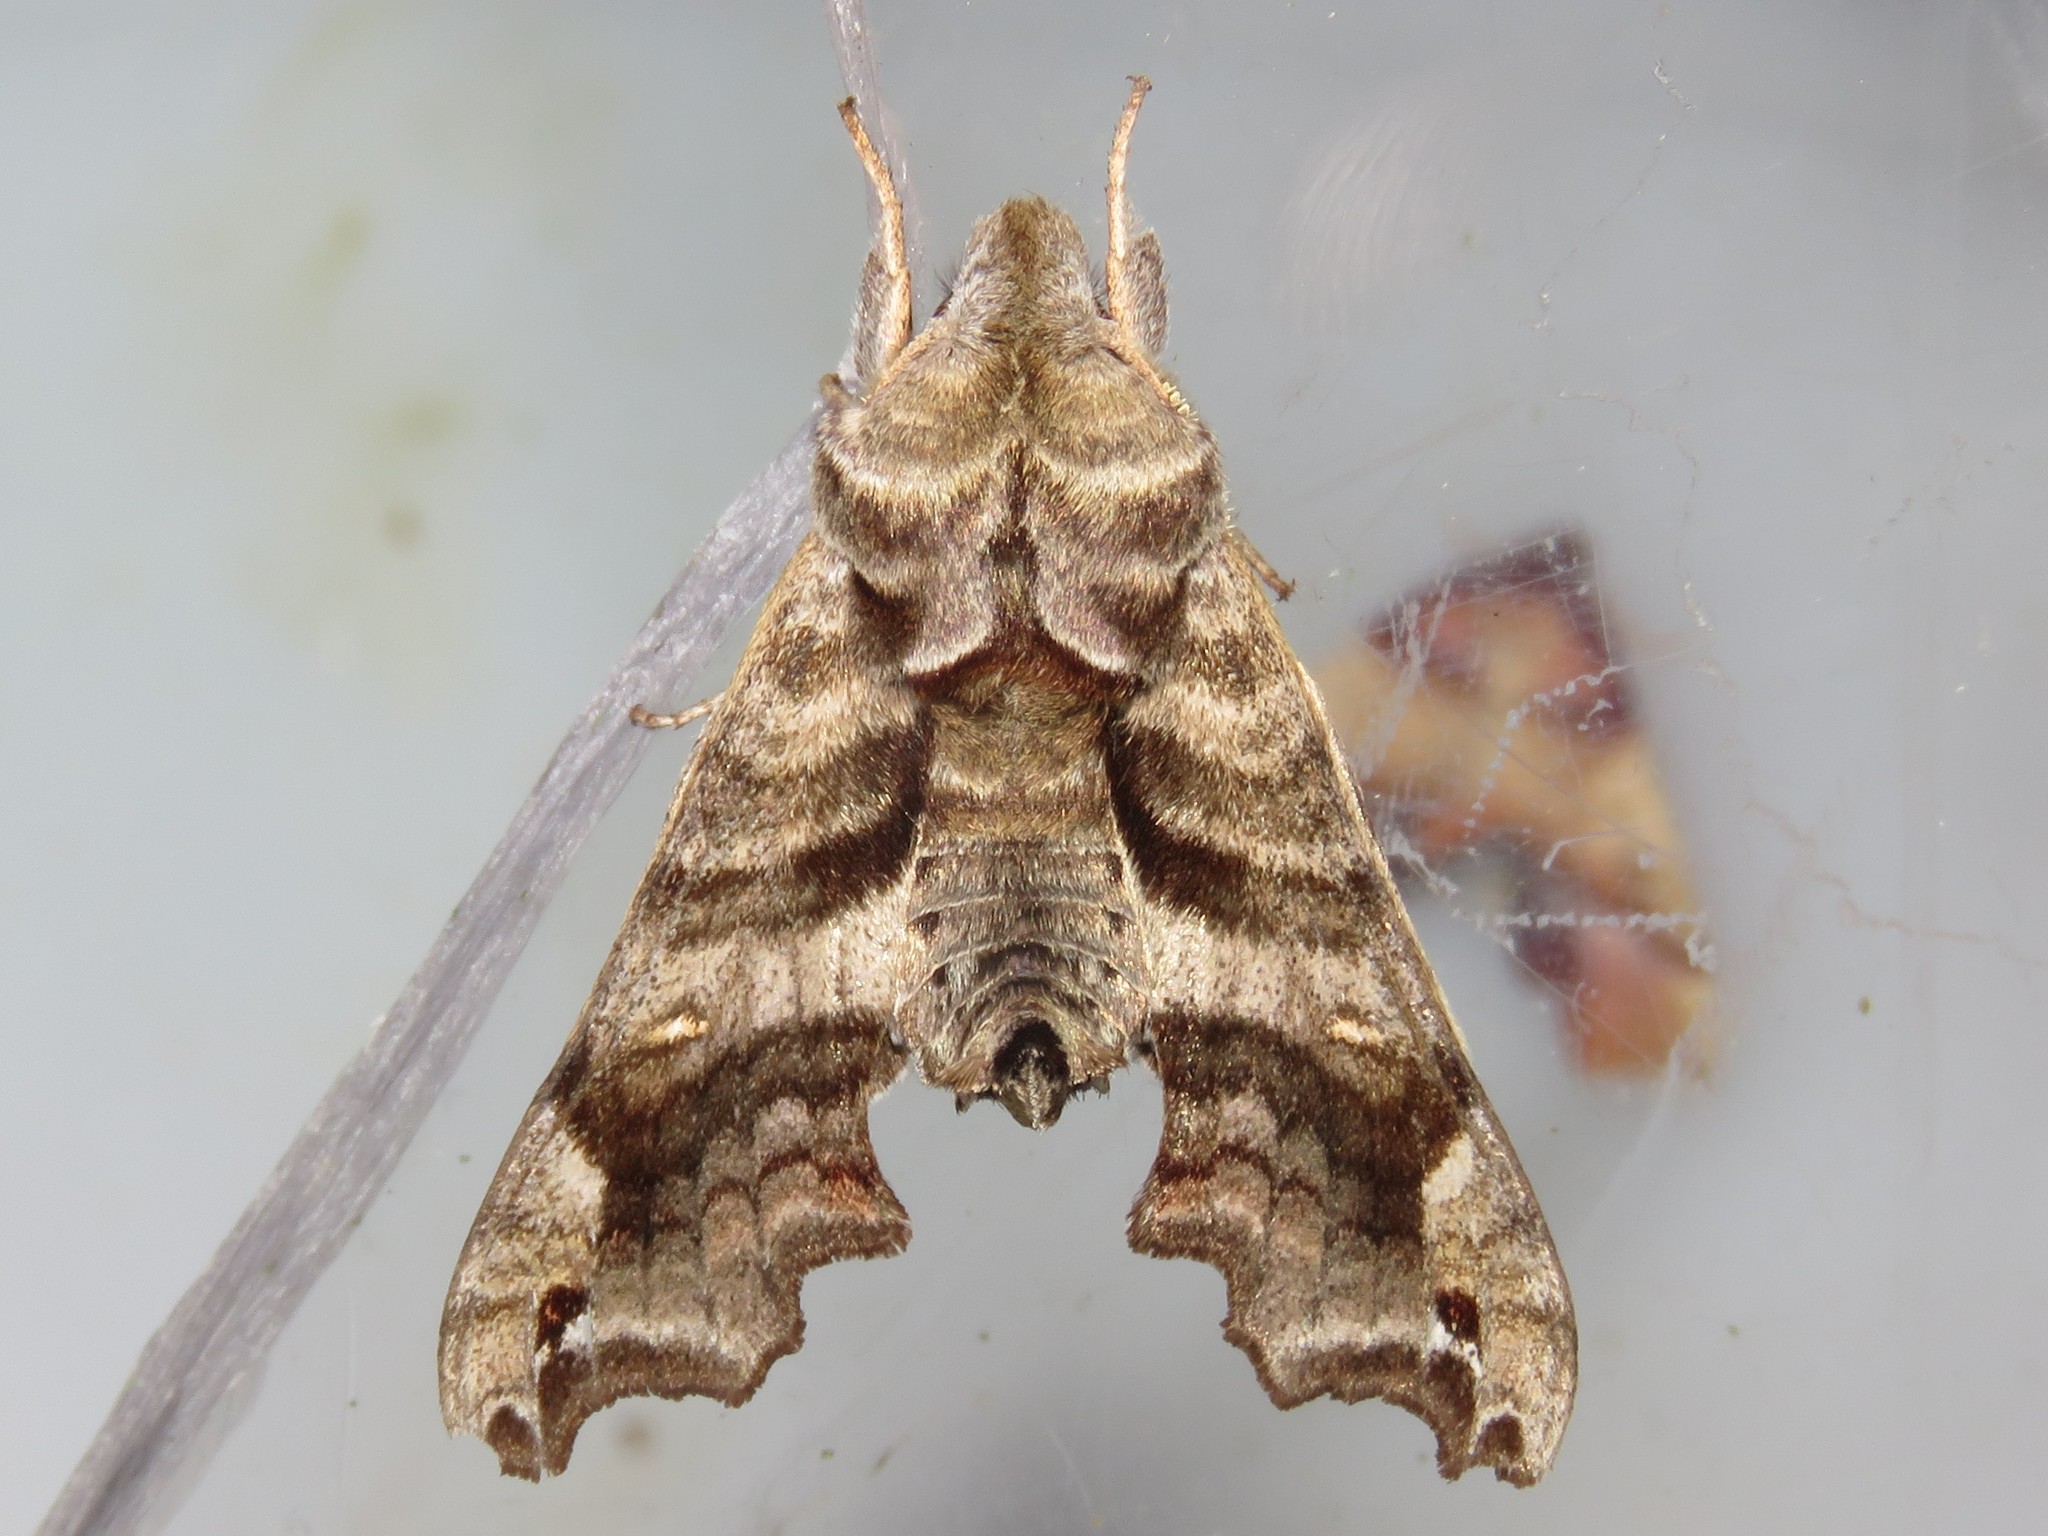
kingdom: Animalia
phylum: Arthropoda
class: Insecta
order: Lepidoptera
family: Sphingidae
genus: Deidamia
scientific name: Deidamia inscriptum
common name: Lettered sphinx
